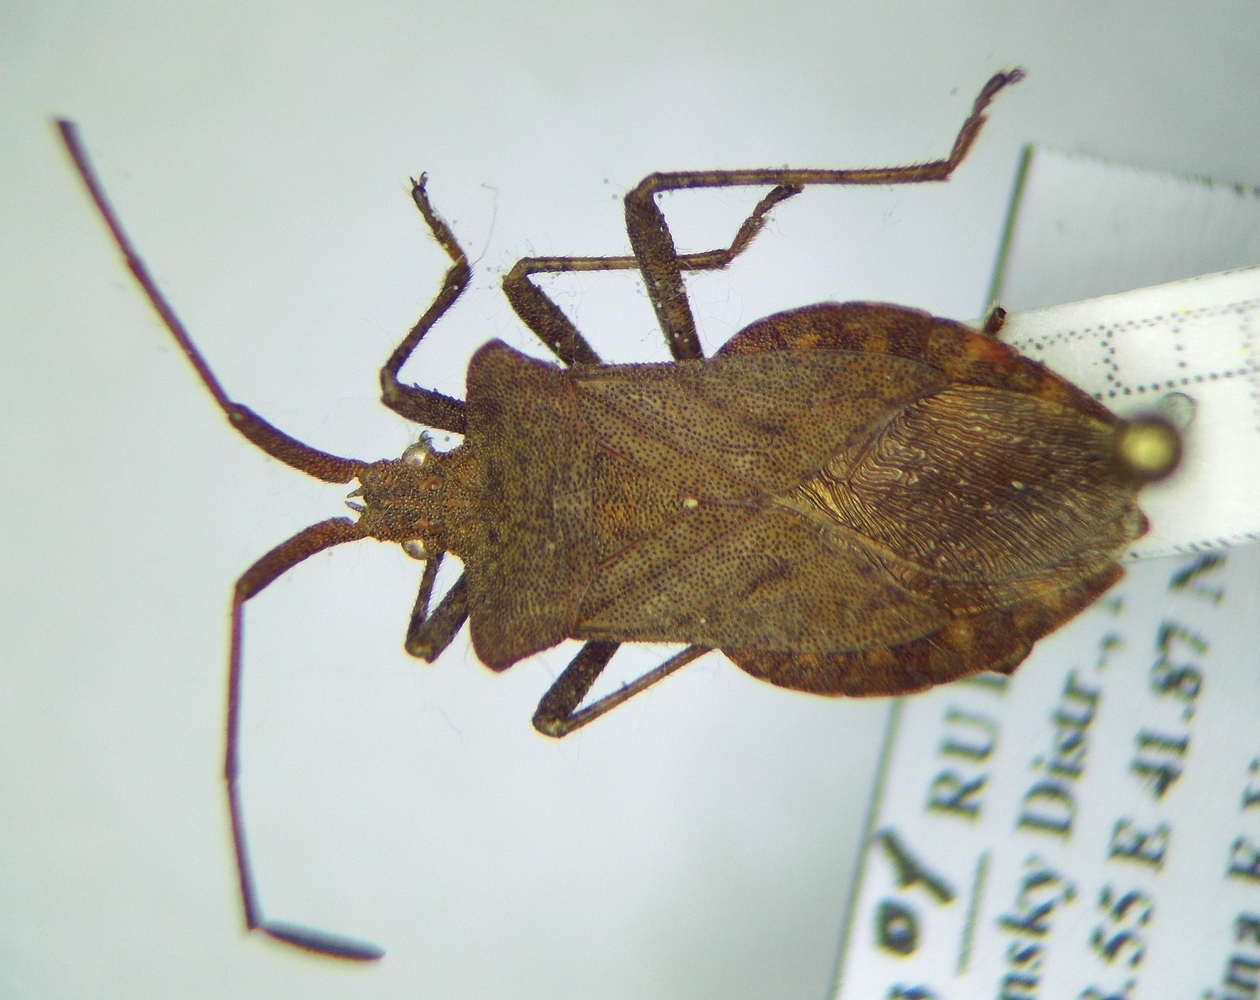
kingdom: Animalia
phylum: Arthropoda
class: Insecta
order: Hemiptera
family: Coreidae
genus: Coreus
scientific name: Coreus marginatus
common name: Dock bug
